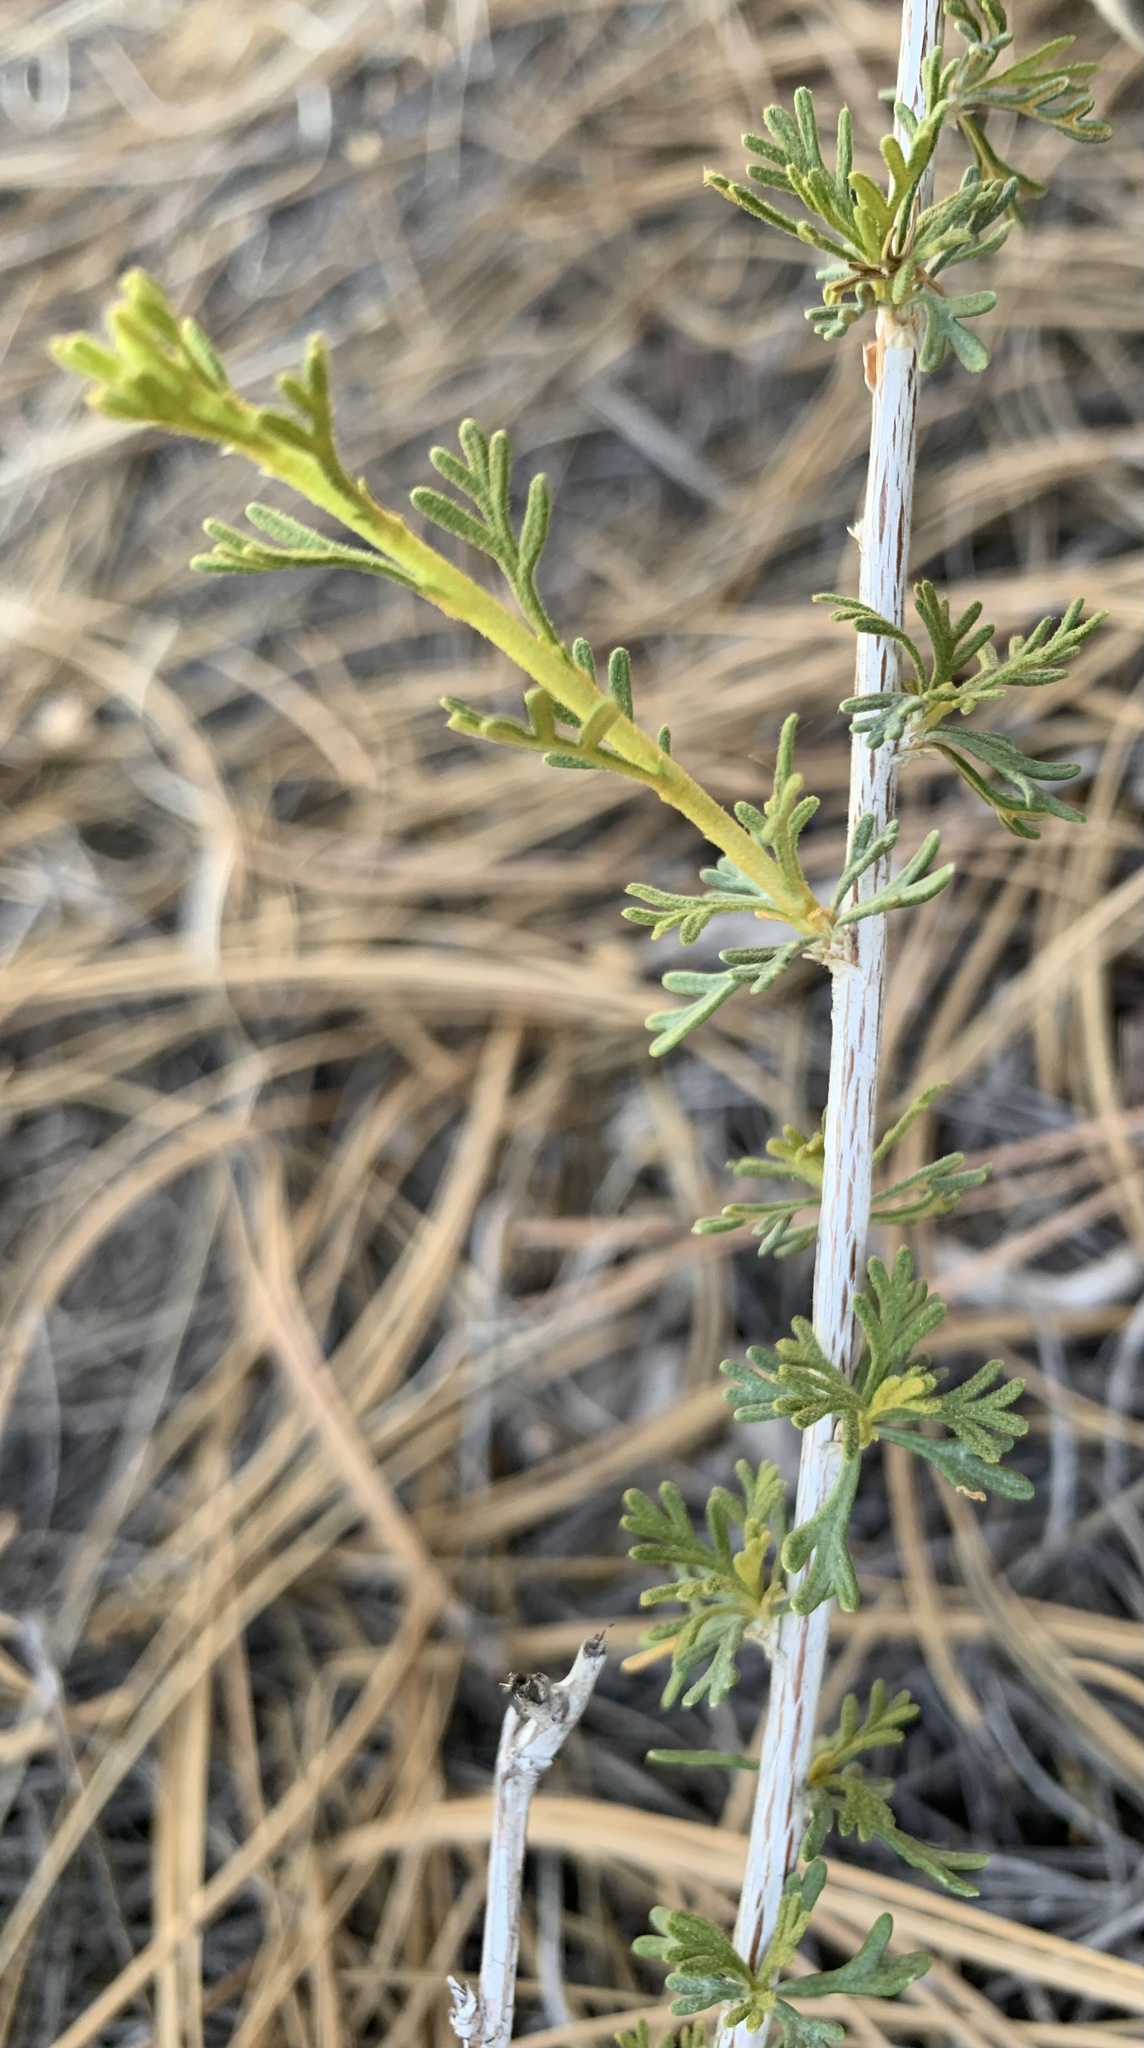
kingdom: Plantae
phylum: Tracheophyta
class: Magnoliopsida
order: Rosales
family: Rosaceae
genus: Fallugia
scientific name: Fallugia paradoxa
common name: Apache-plume
